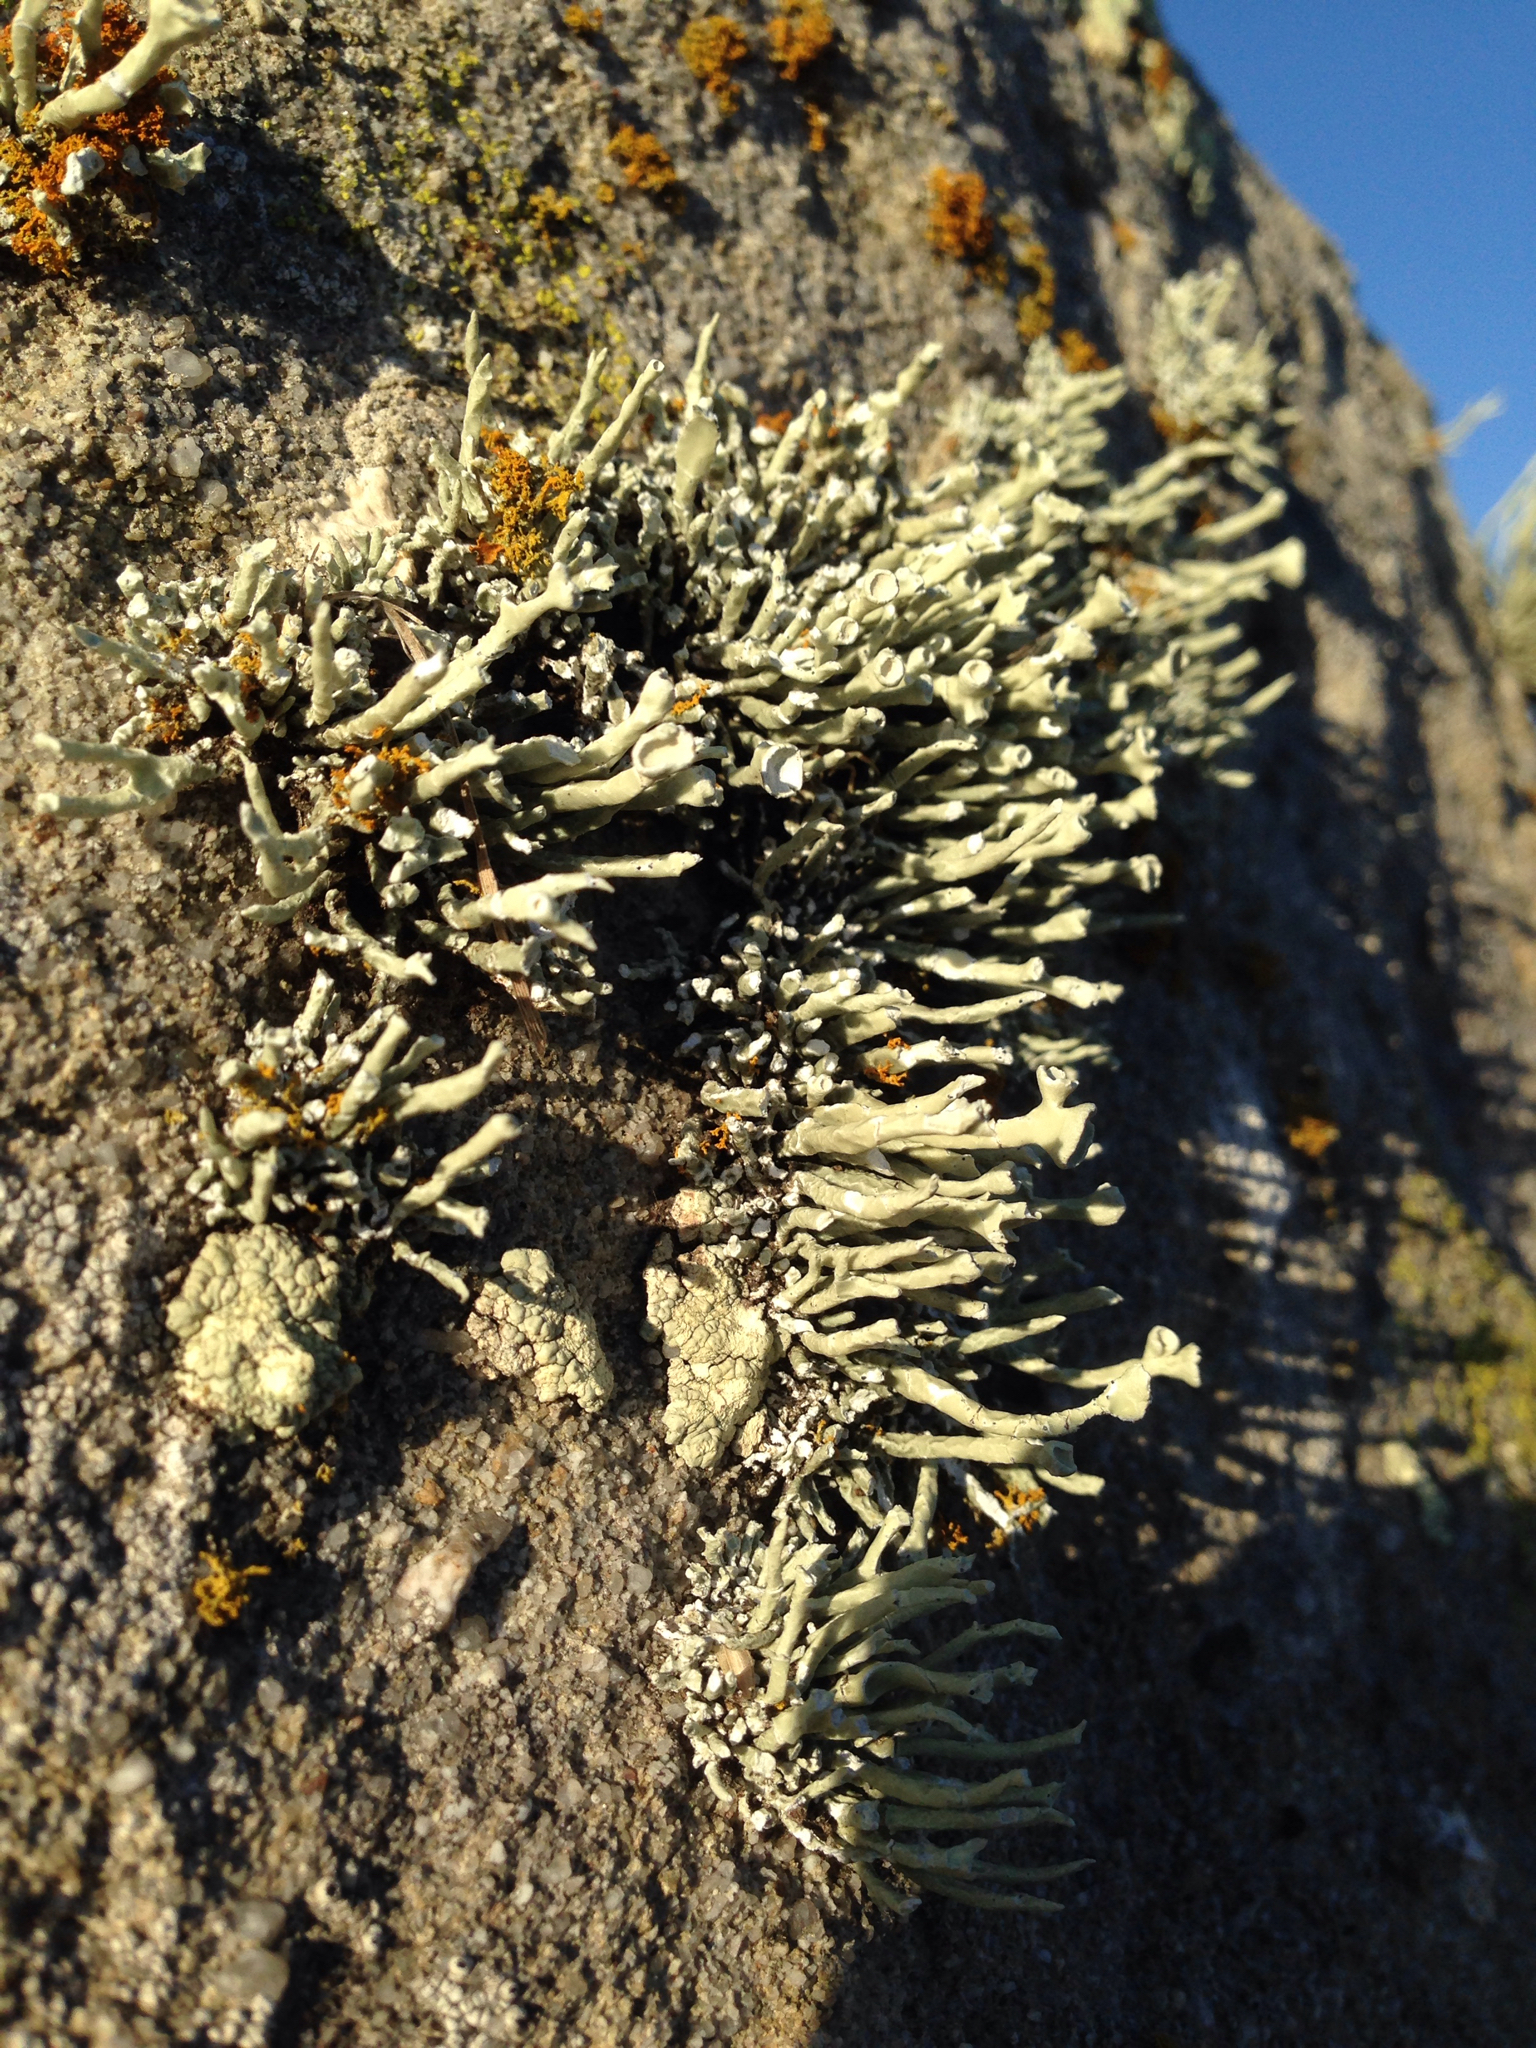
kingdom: Fungi
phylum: Ascomycota
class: Lecanoromycetes
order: Lecanorales
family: Ramalinaceae
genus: Niebla
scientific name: Niebla combeoides
